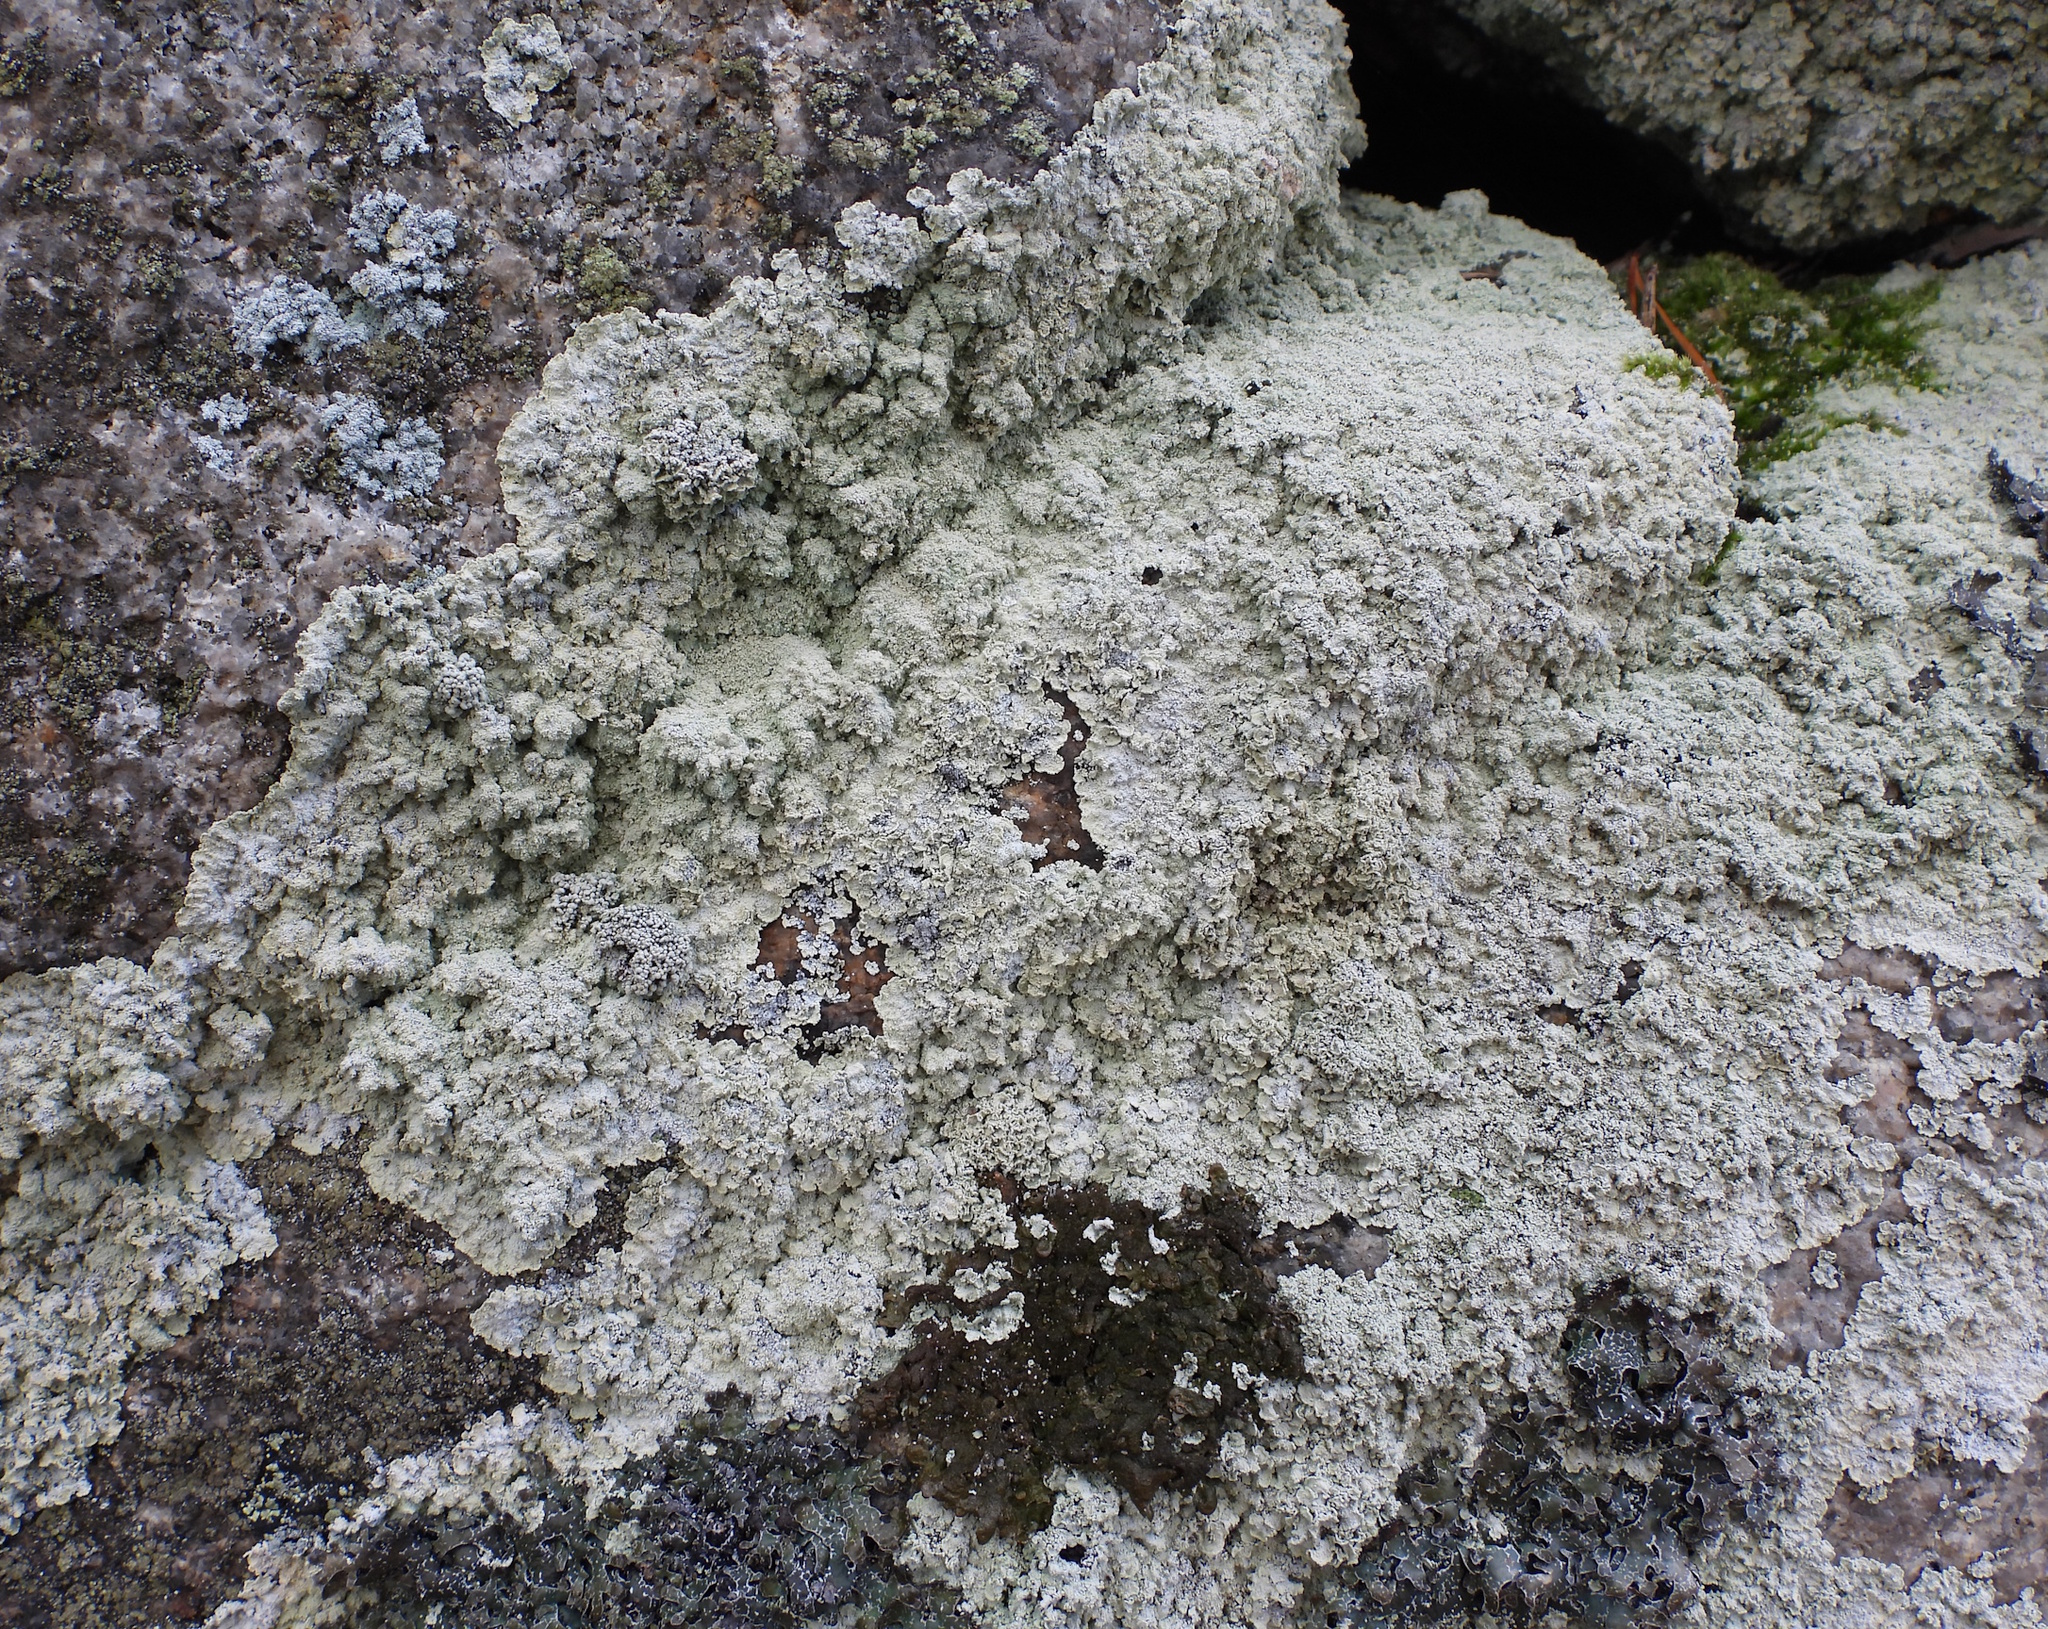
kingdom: Fungi
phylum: Ascomycota
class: Lecanoromycetes
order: Lecanorales
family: Stereocaulaceae
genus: Lepraria
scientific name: Lepraria membranacea
